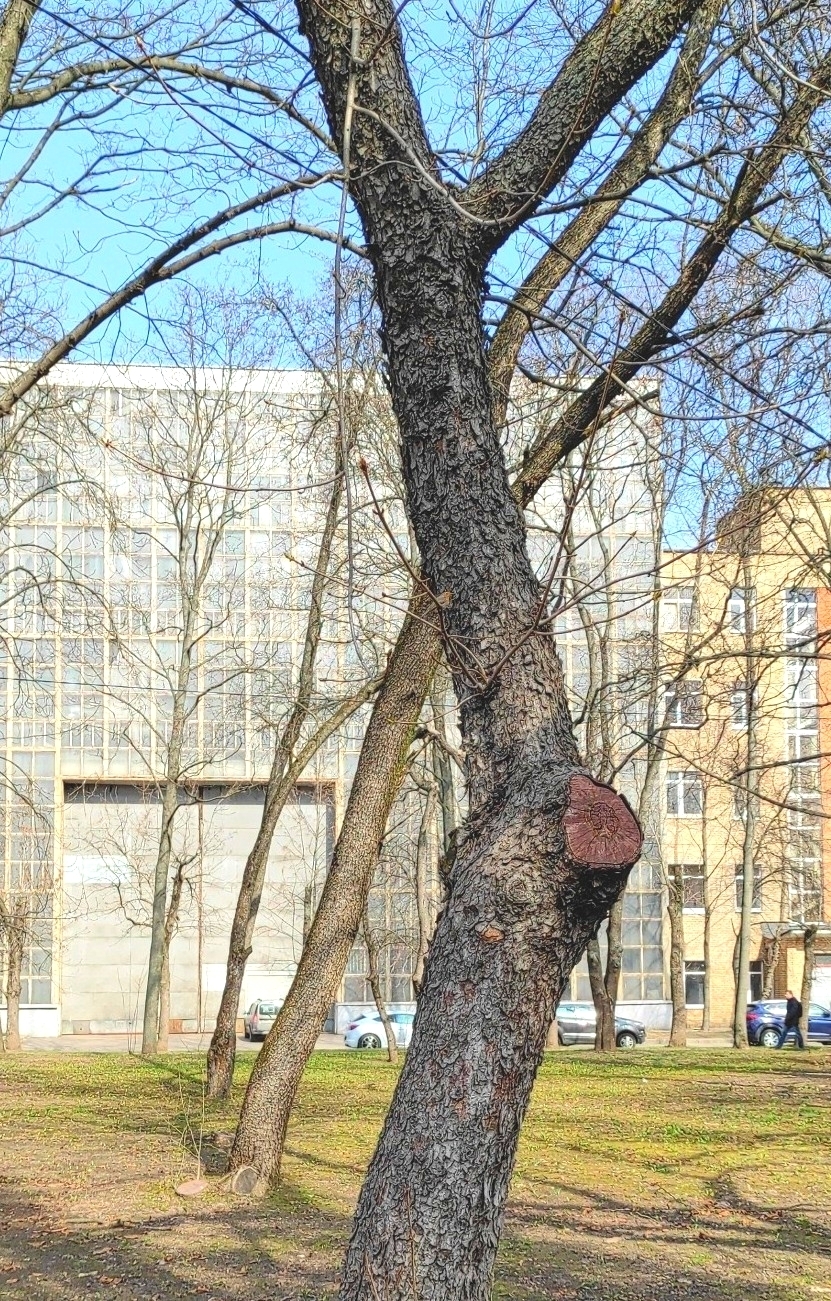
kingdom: Animalia
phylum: Chordata
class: Aves
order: Passeriformes
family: Muscicapidae
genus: Erithacus
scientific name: Erithacus rubecula
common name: European robin
